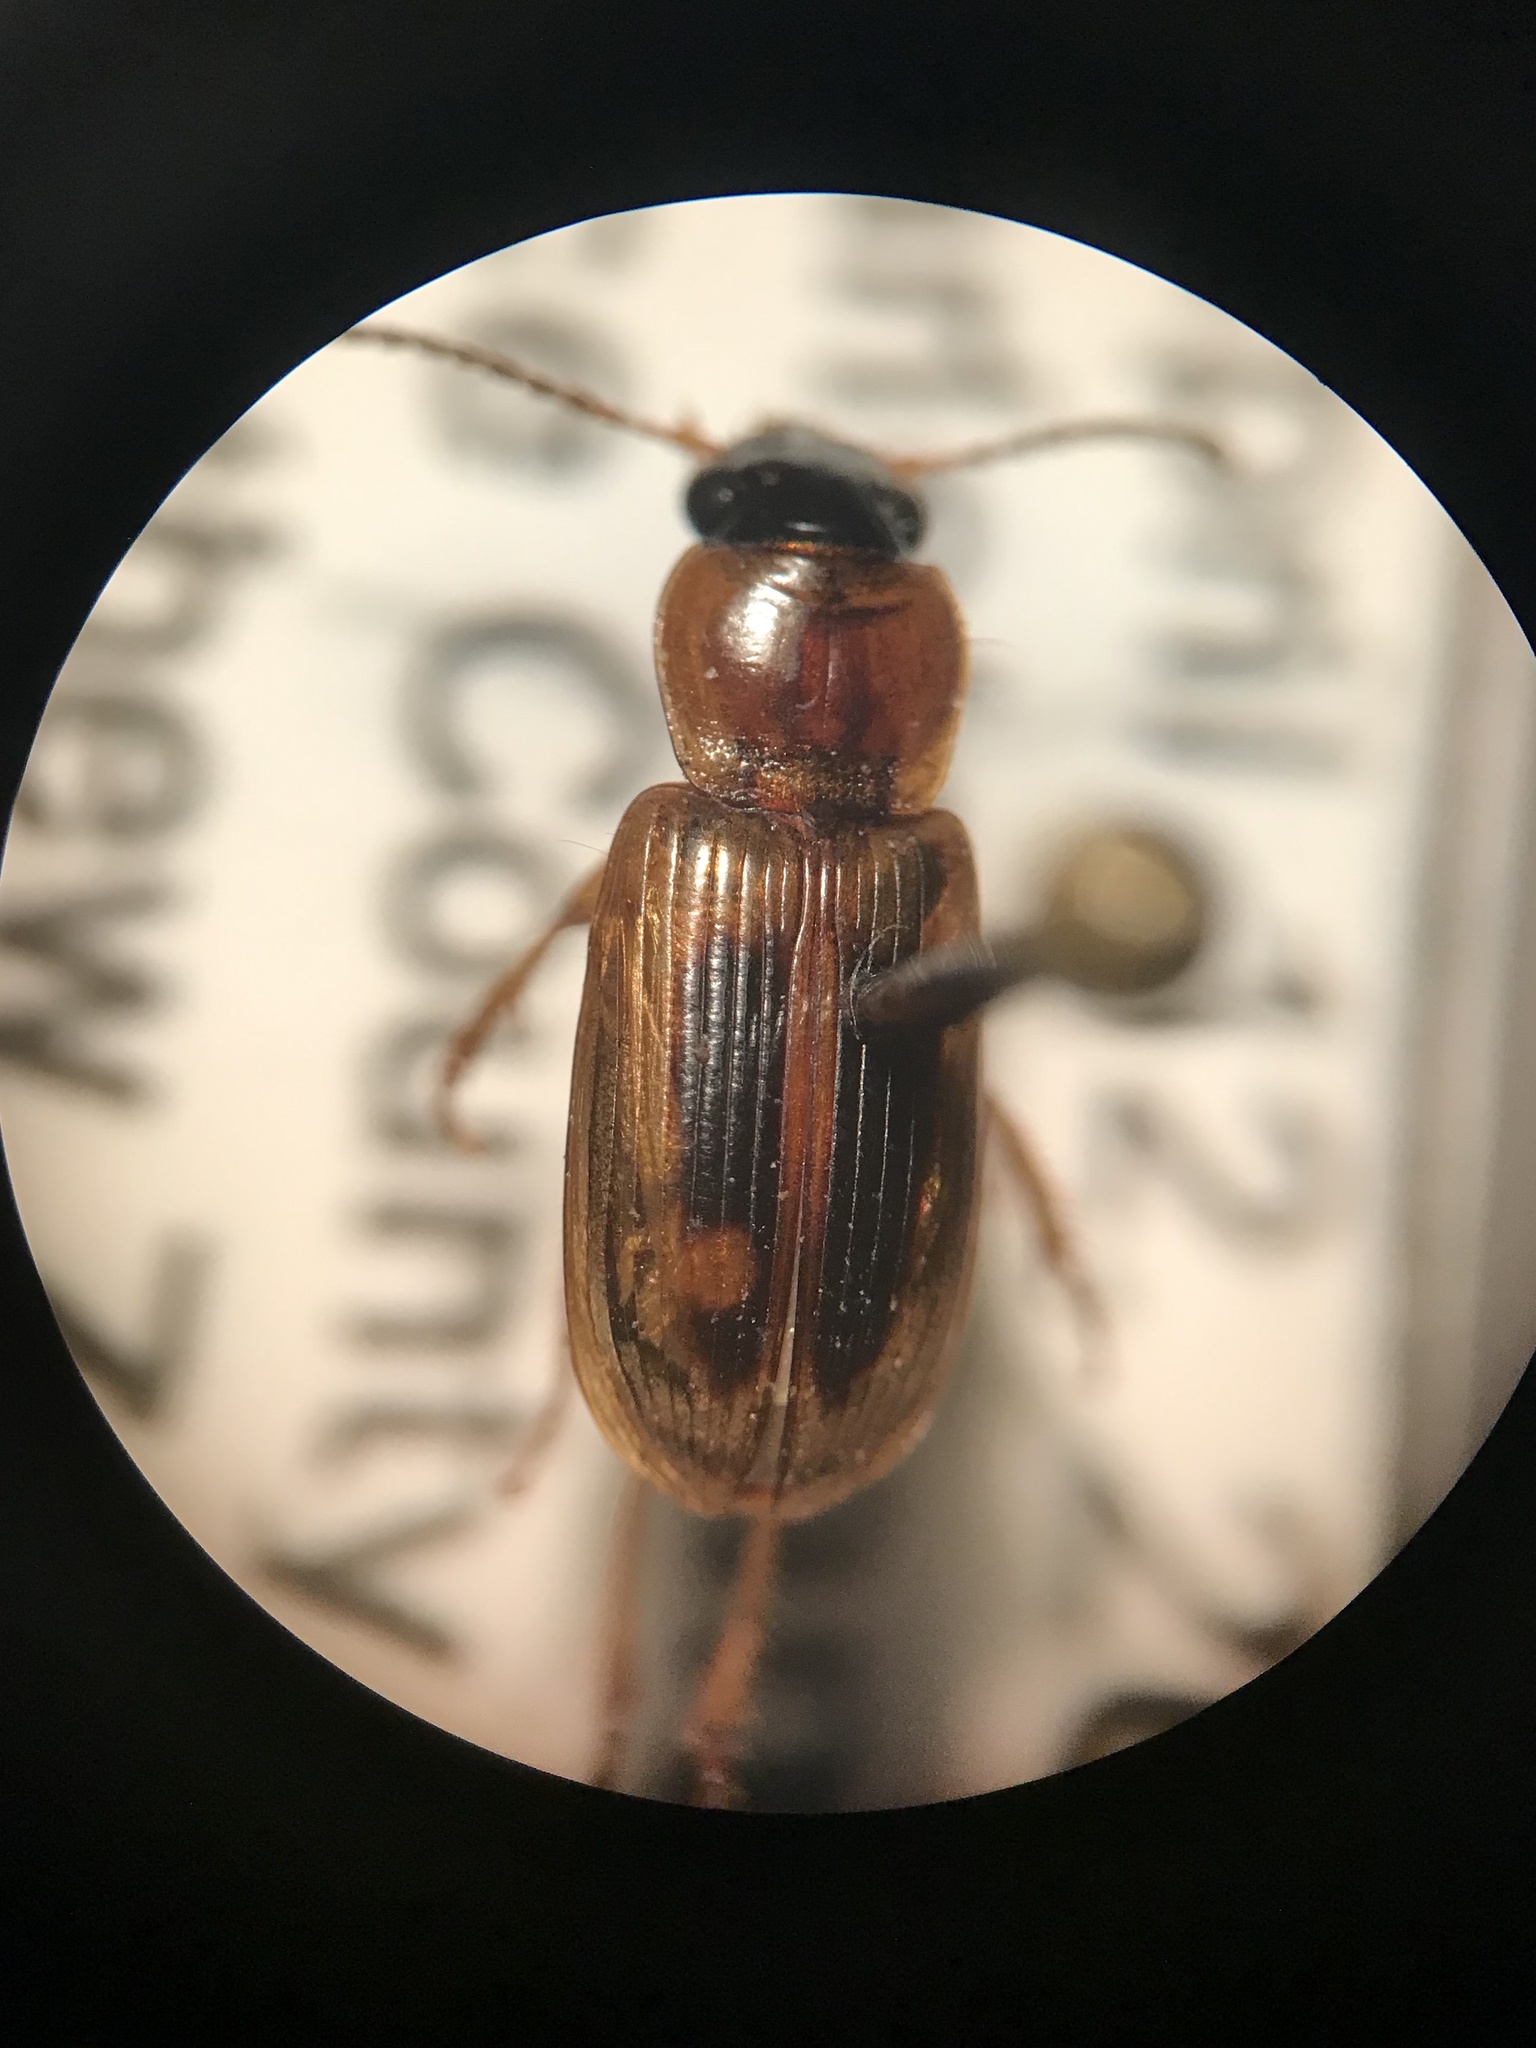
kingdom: Animalia
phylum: Arthropoda
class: Insecta
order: Coleoptera
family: Carabidae
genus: Stenolophus
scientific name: Stenolophus comma
